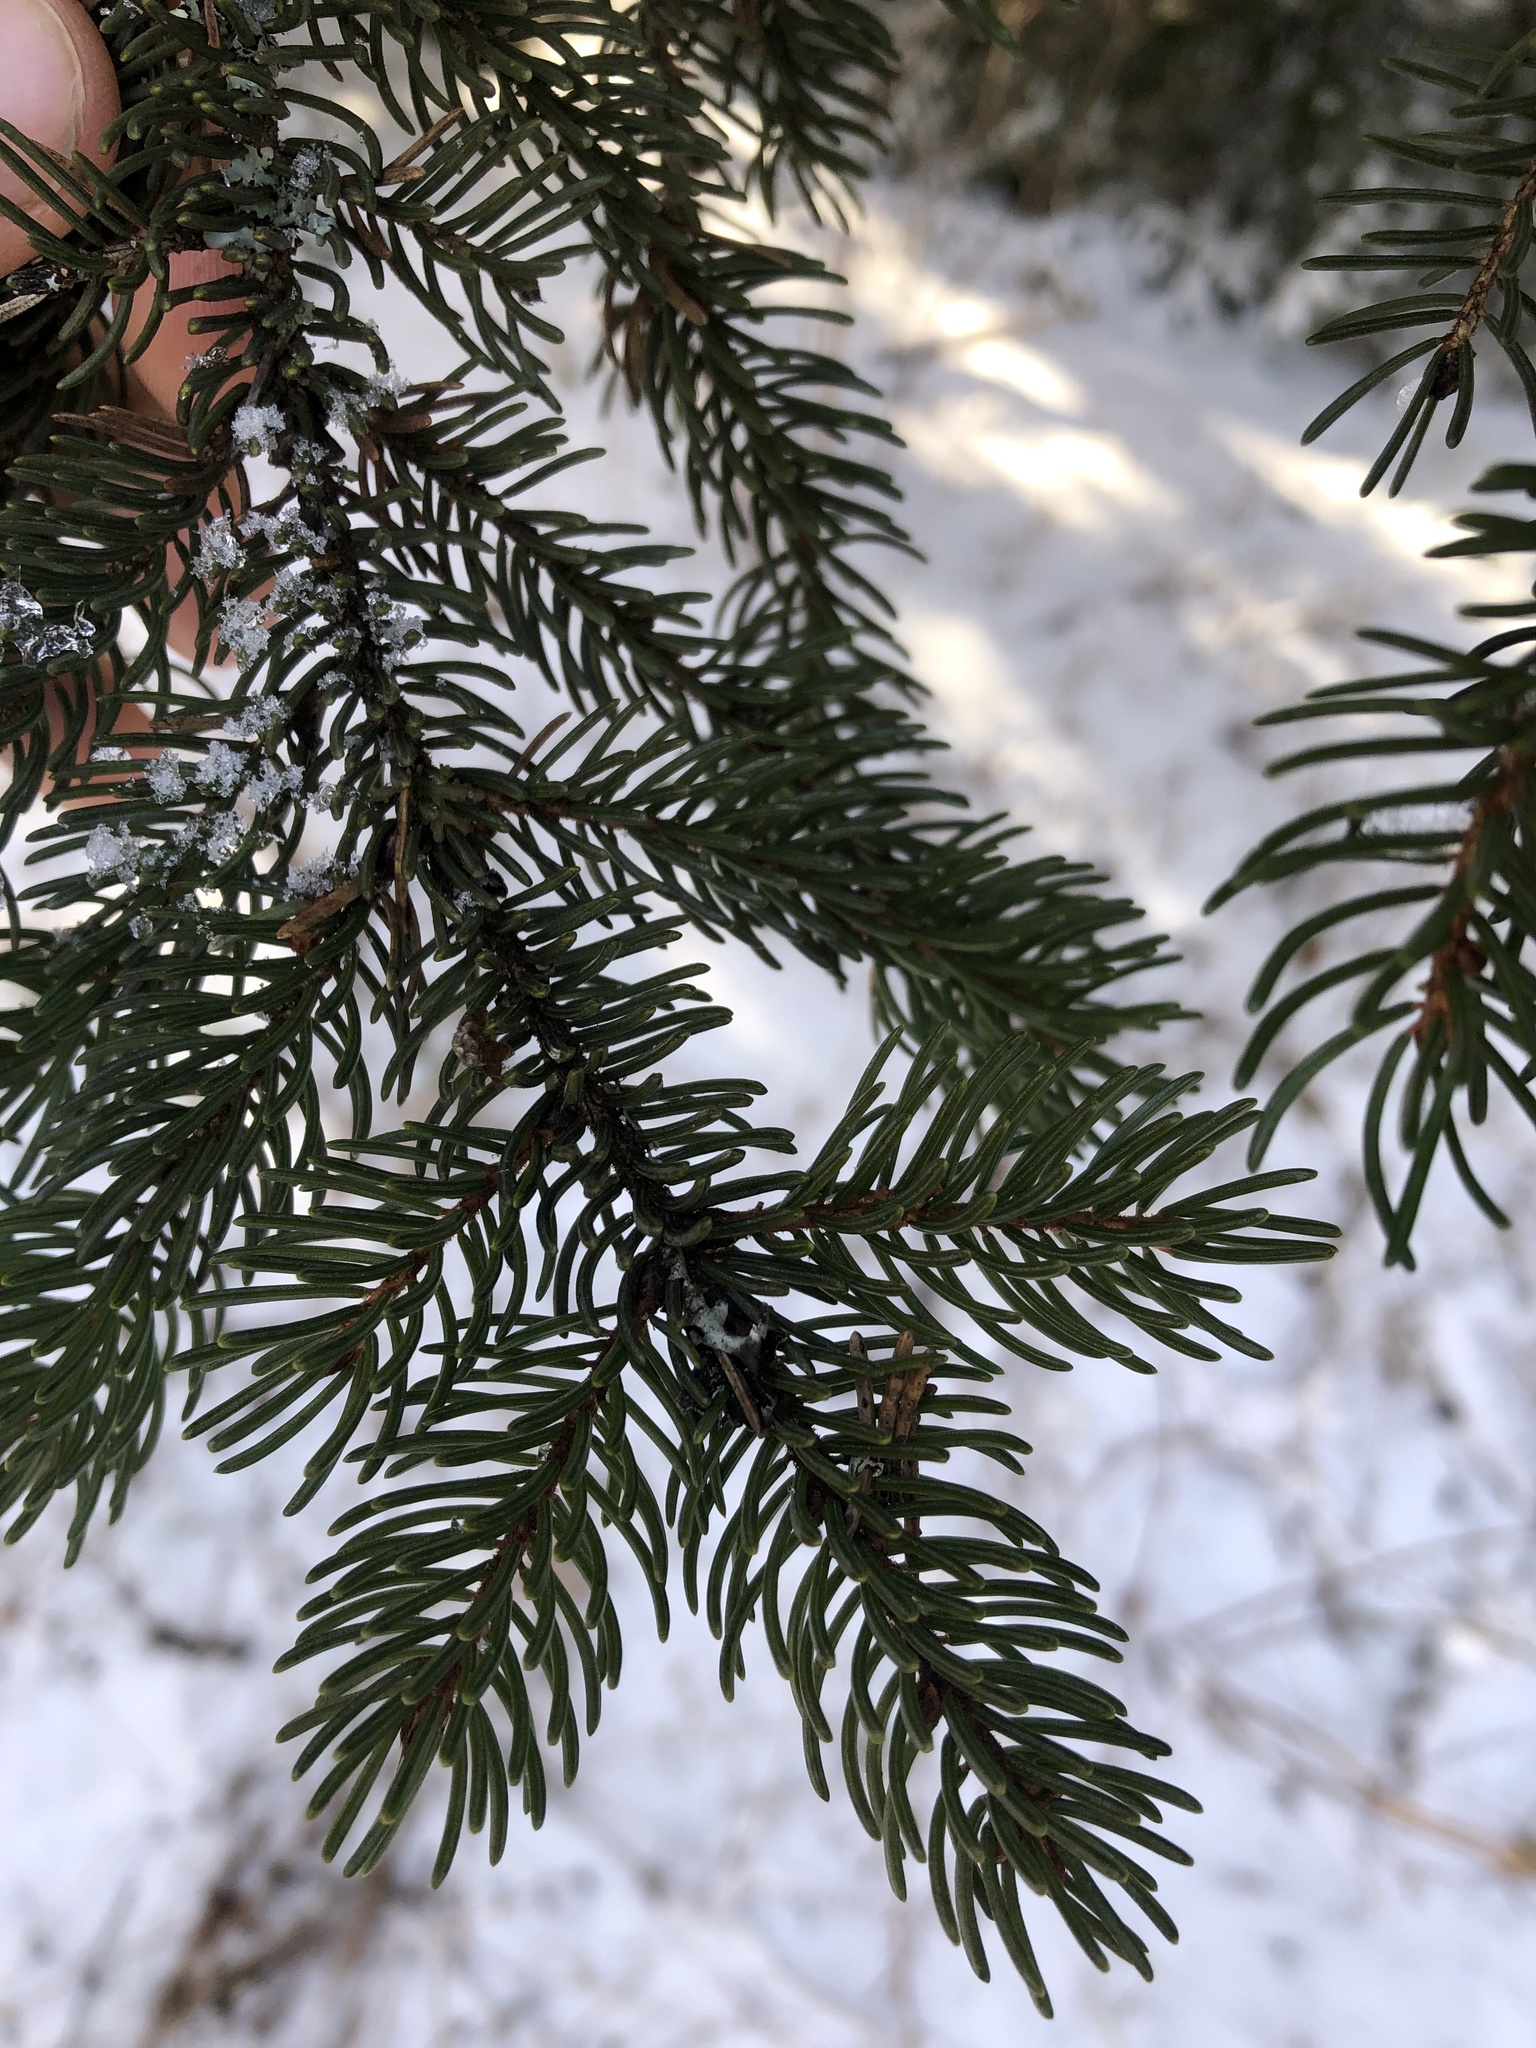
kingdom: Plantae
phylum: Tracheophyta
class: Pinopsida
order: Pinales
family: Pinaceae
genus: Picea
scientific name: Picea rubens
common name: Red spruce
